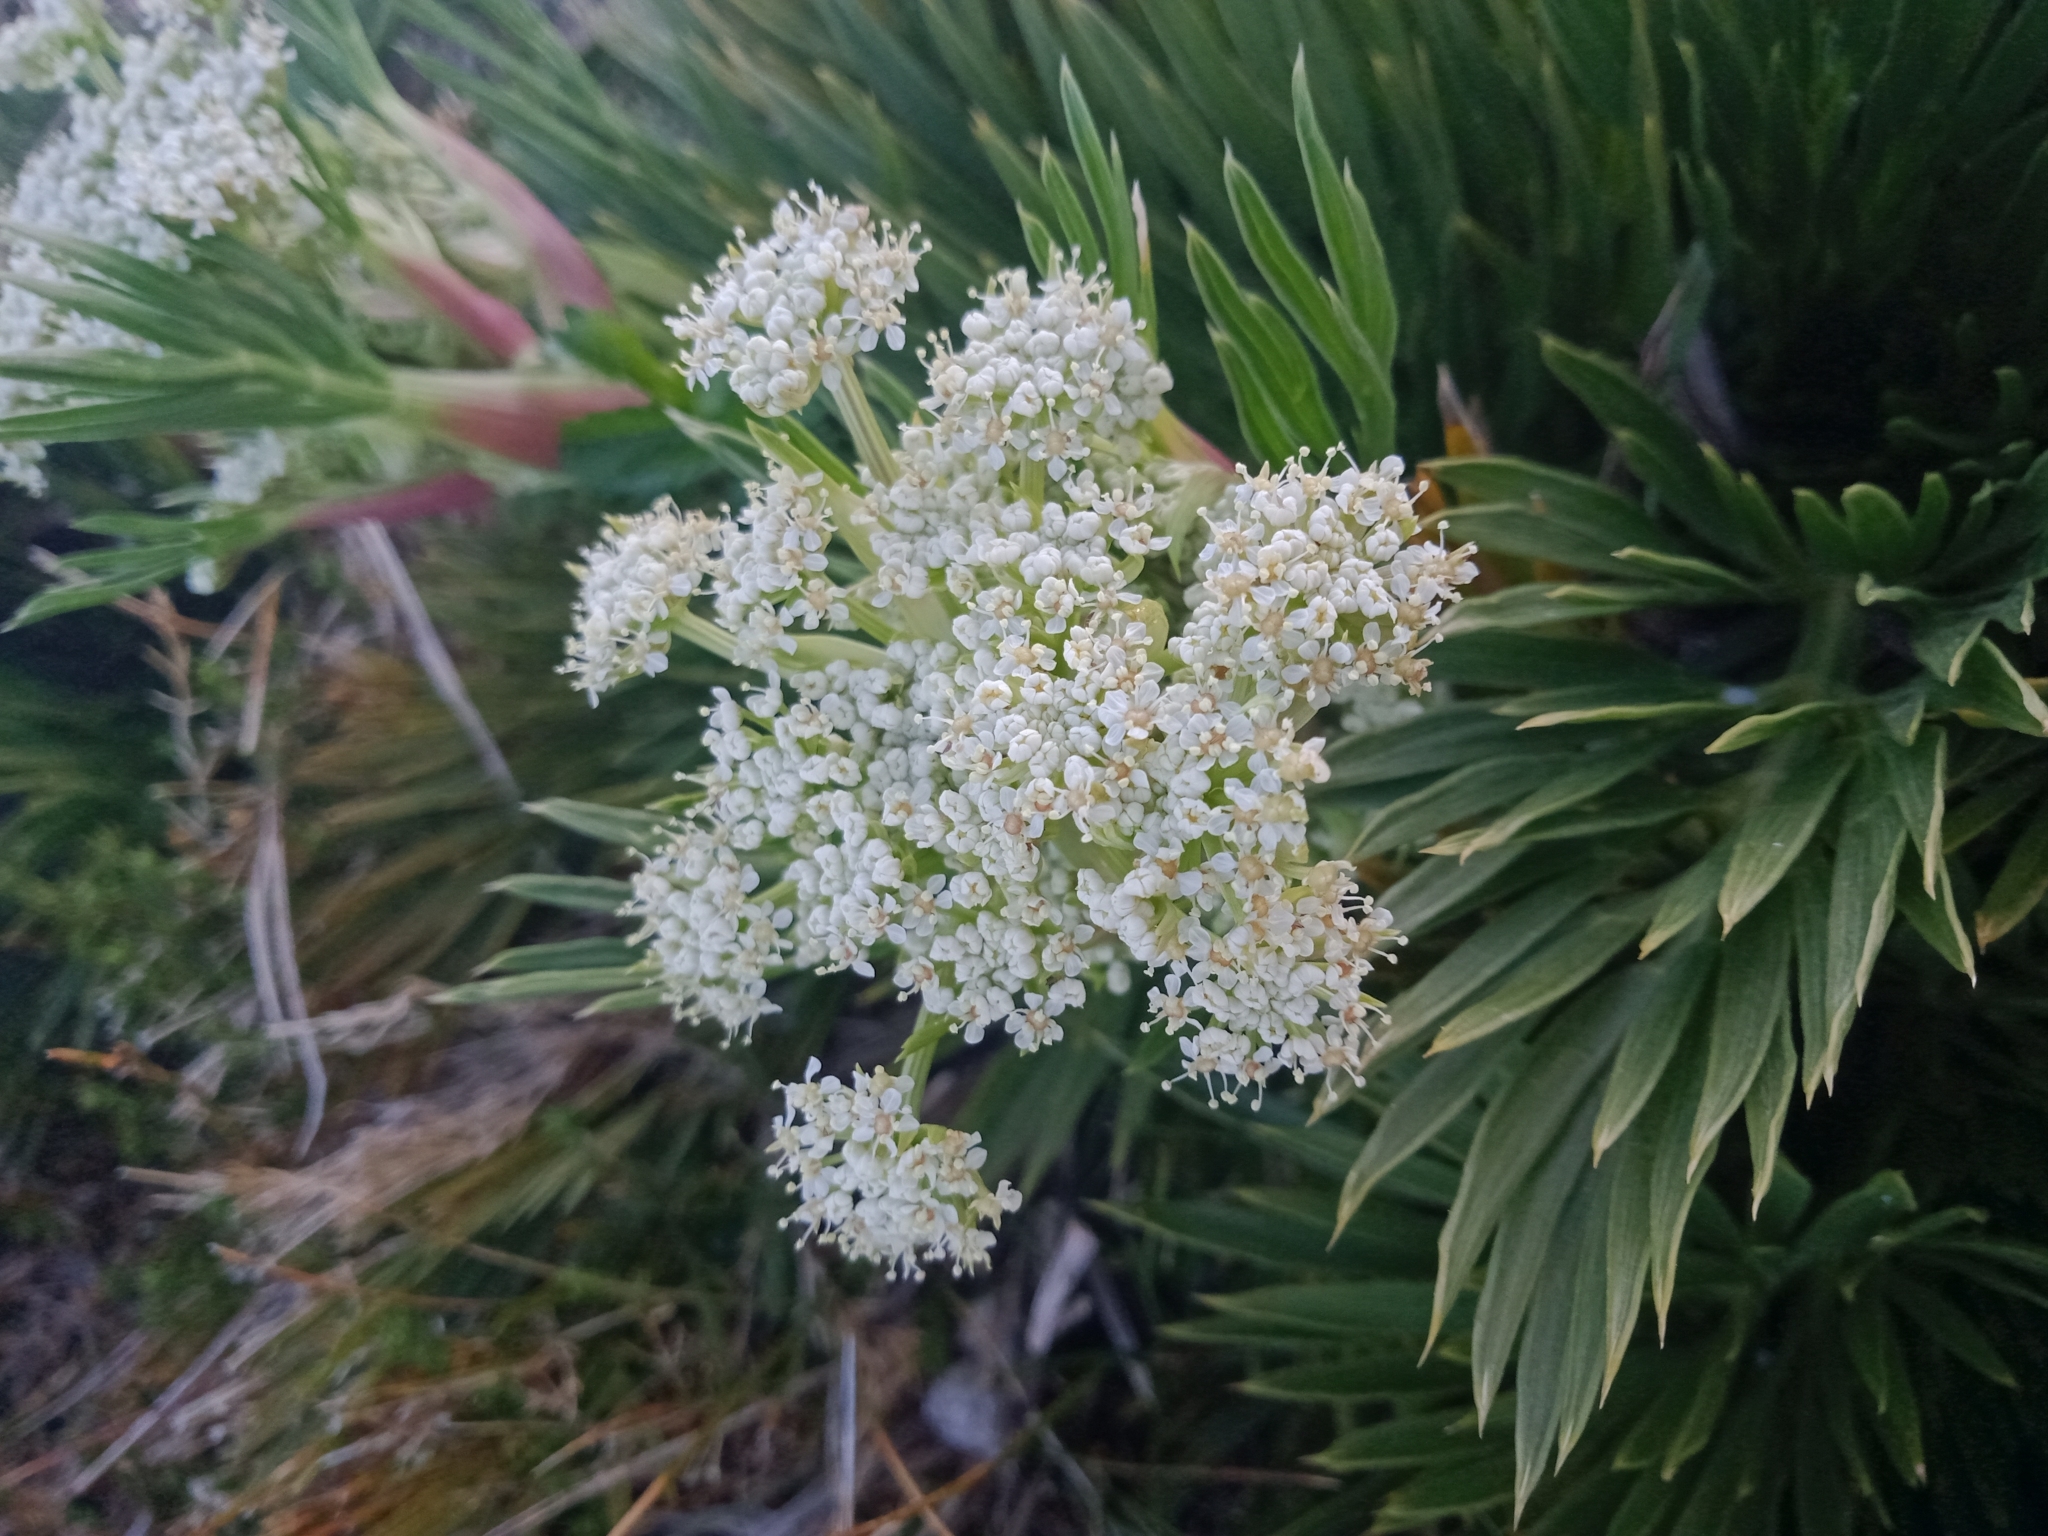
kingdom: Plantae
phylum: Tracheophyta
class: Magnoliopsida
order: Apiales
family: Apiaceae
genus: Aciphylla
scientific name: Aciphylla glacialis
